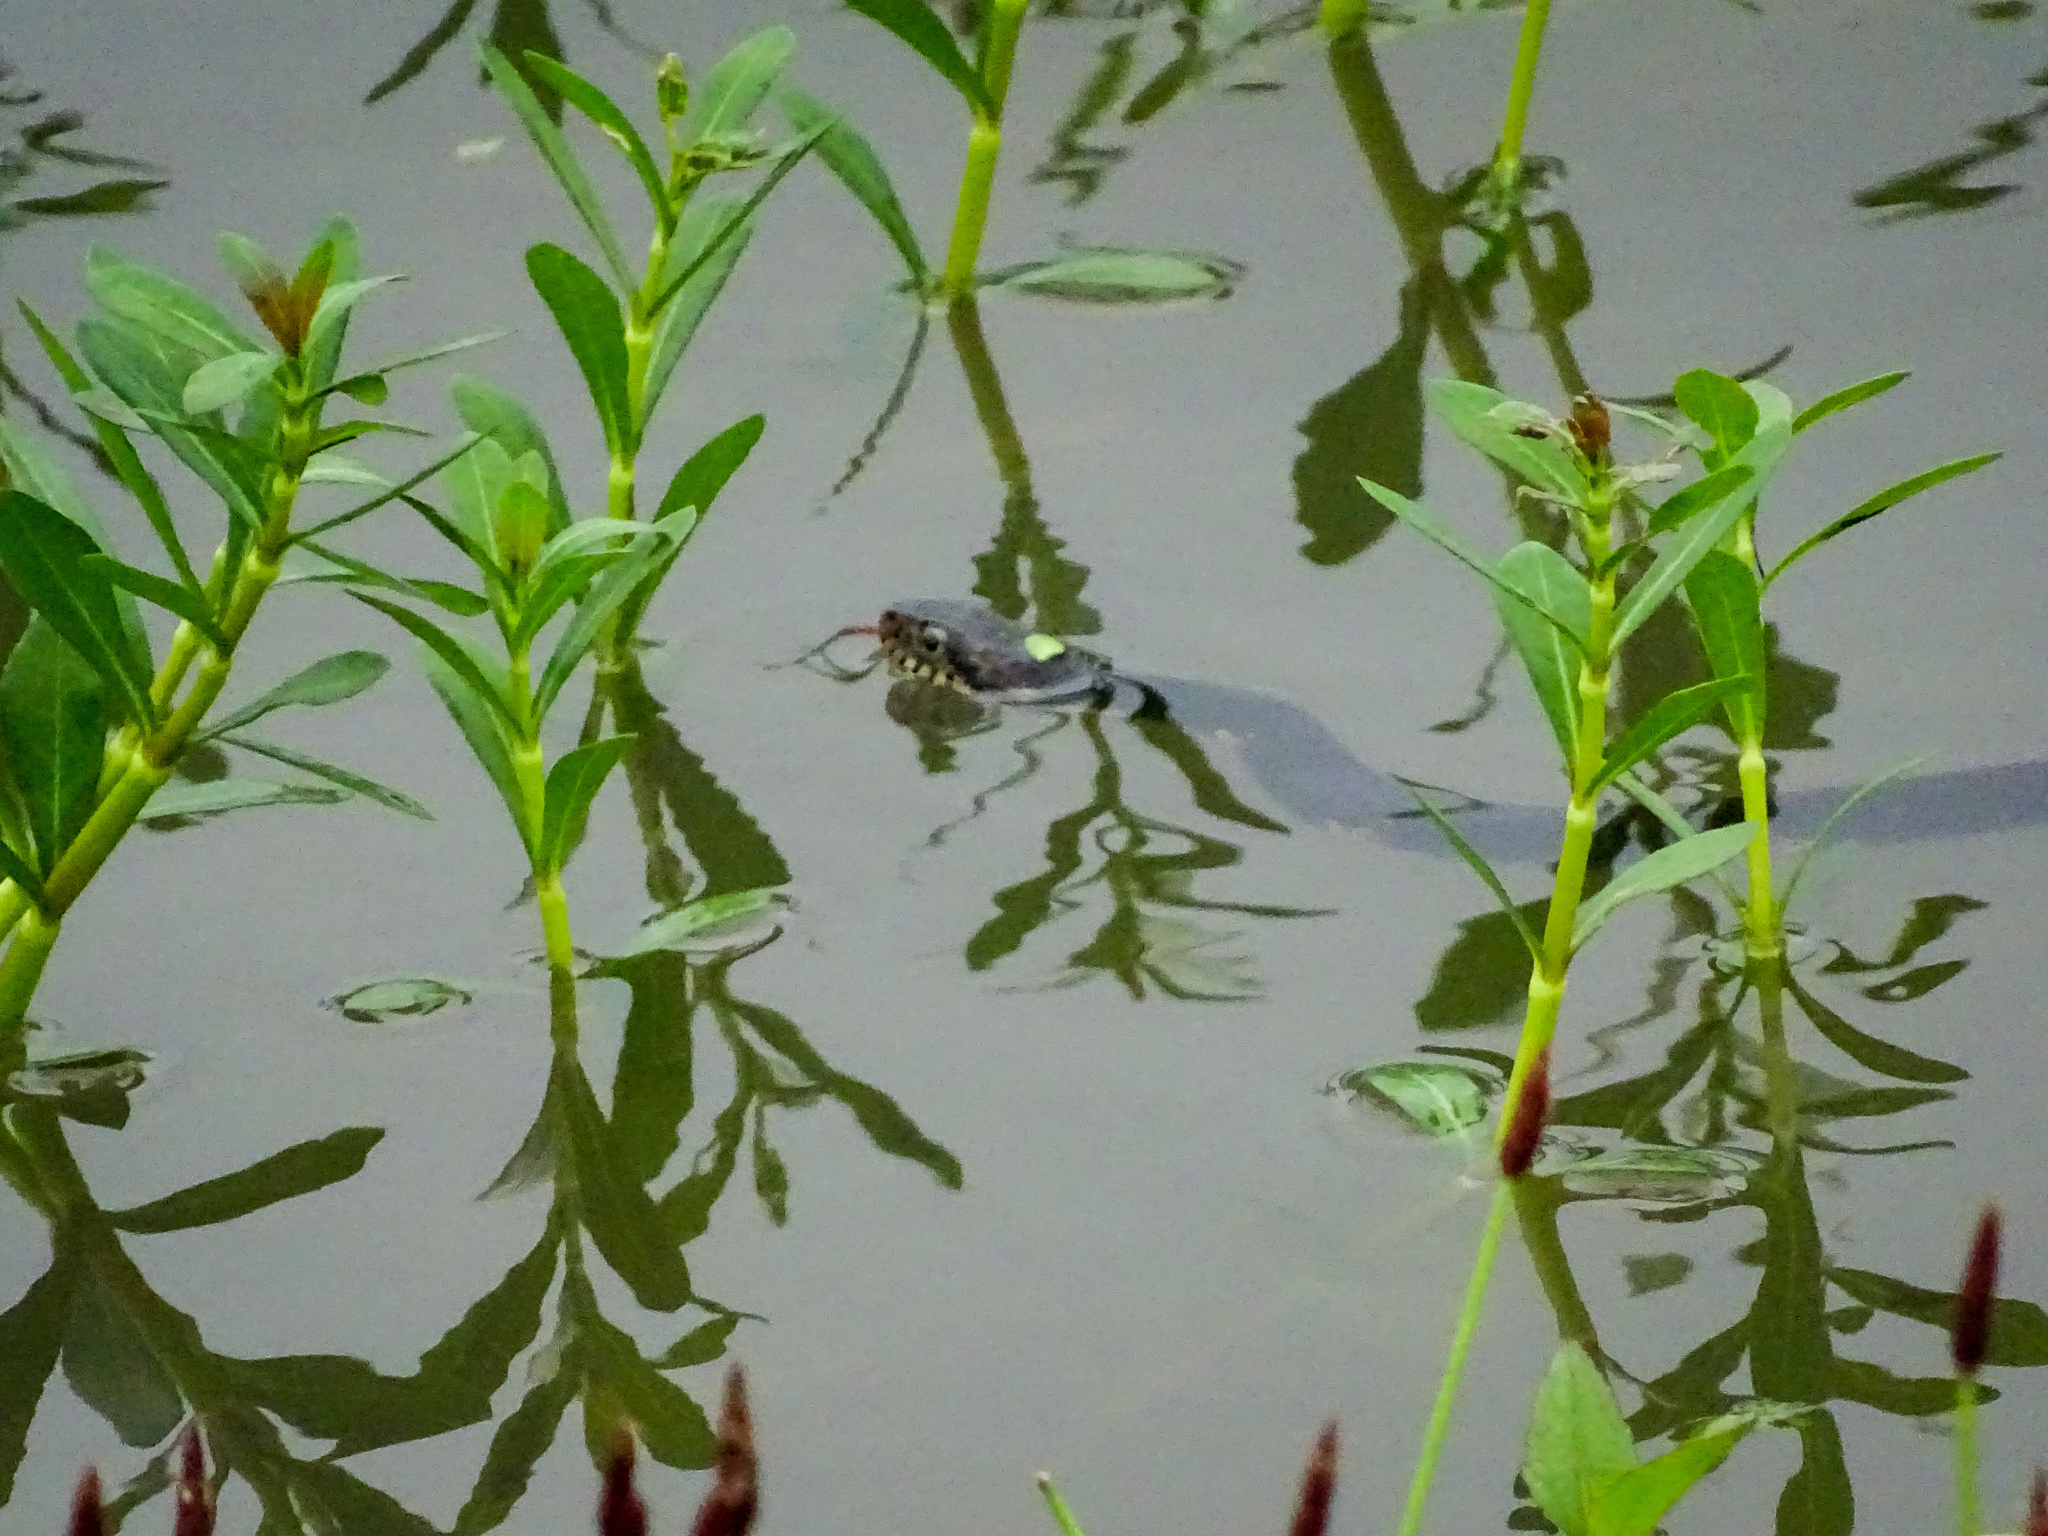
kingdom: Animalia
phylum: Chordata
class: Squamata
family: Colubridae
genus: Nerodia
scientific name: Nerodia fasciata
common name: Southern water snake
